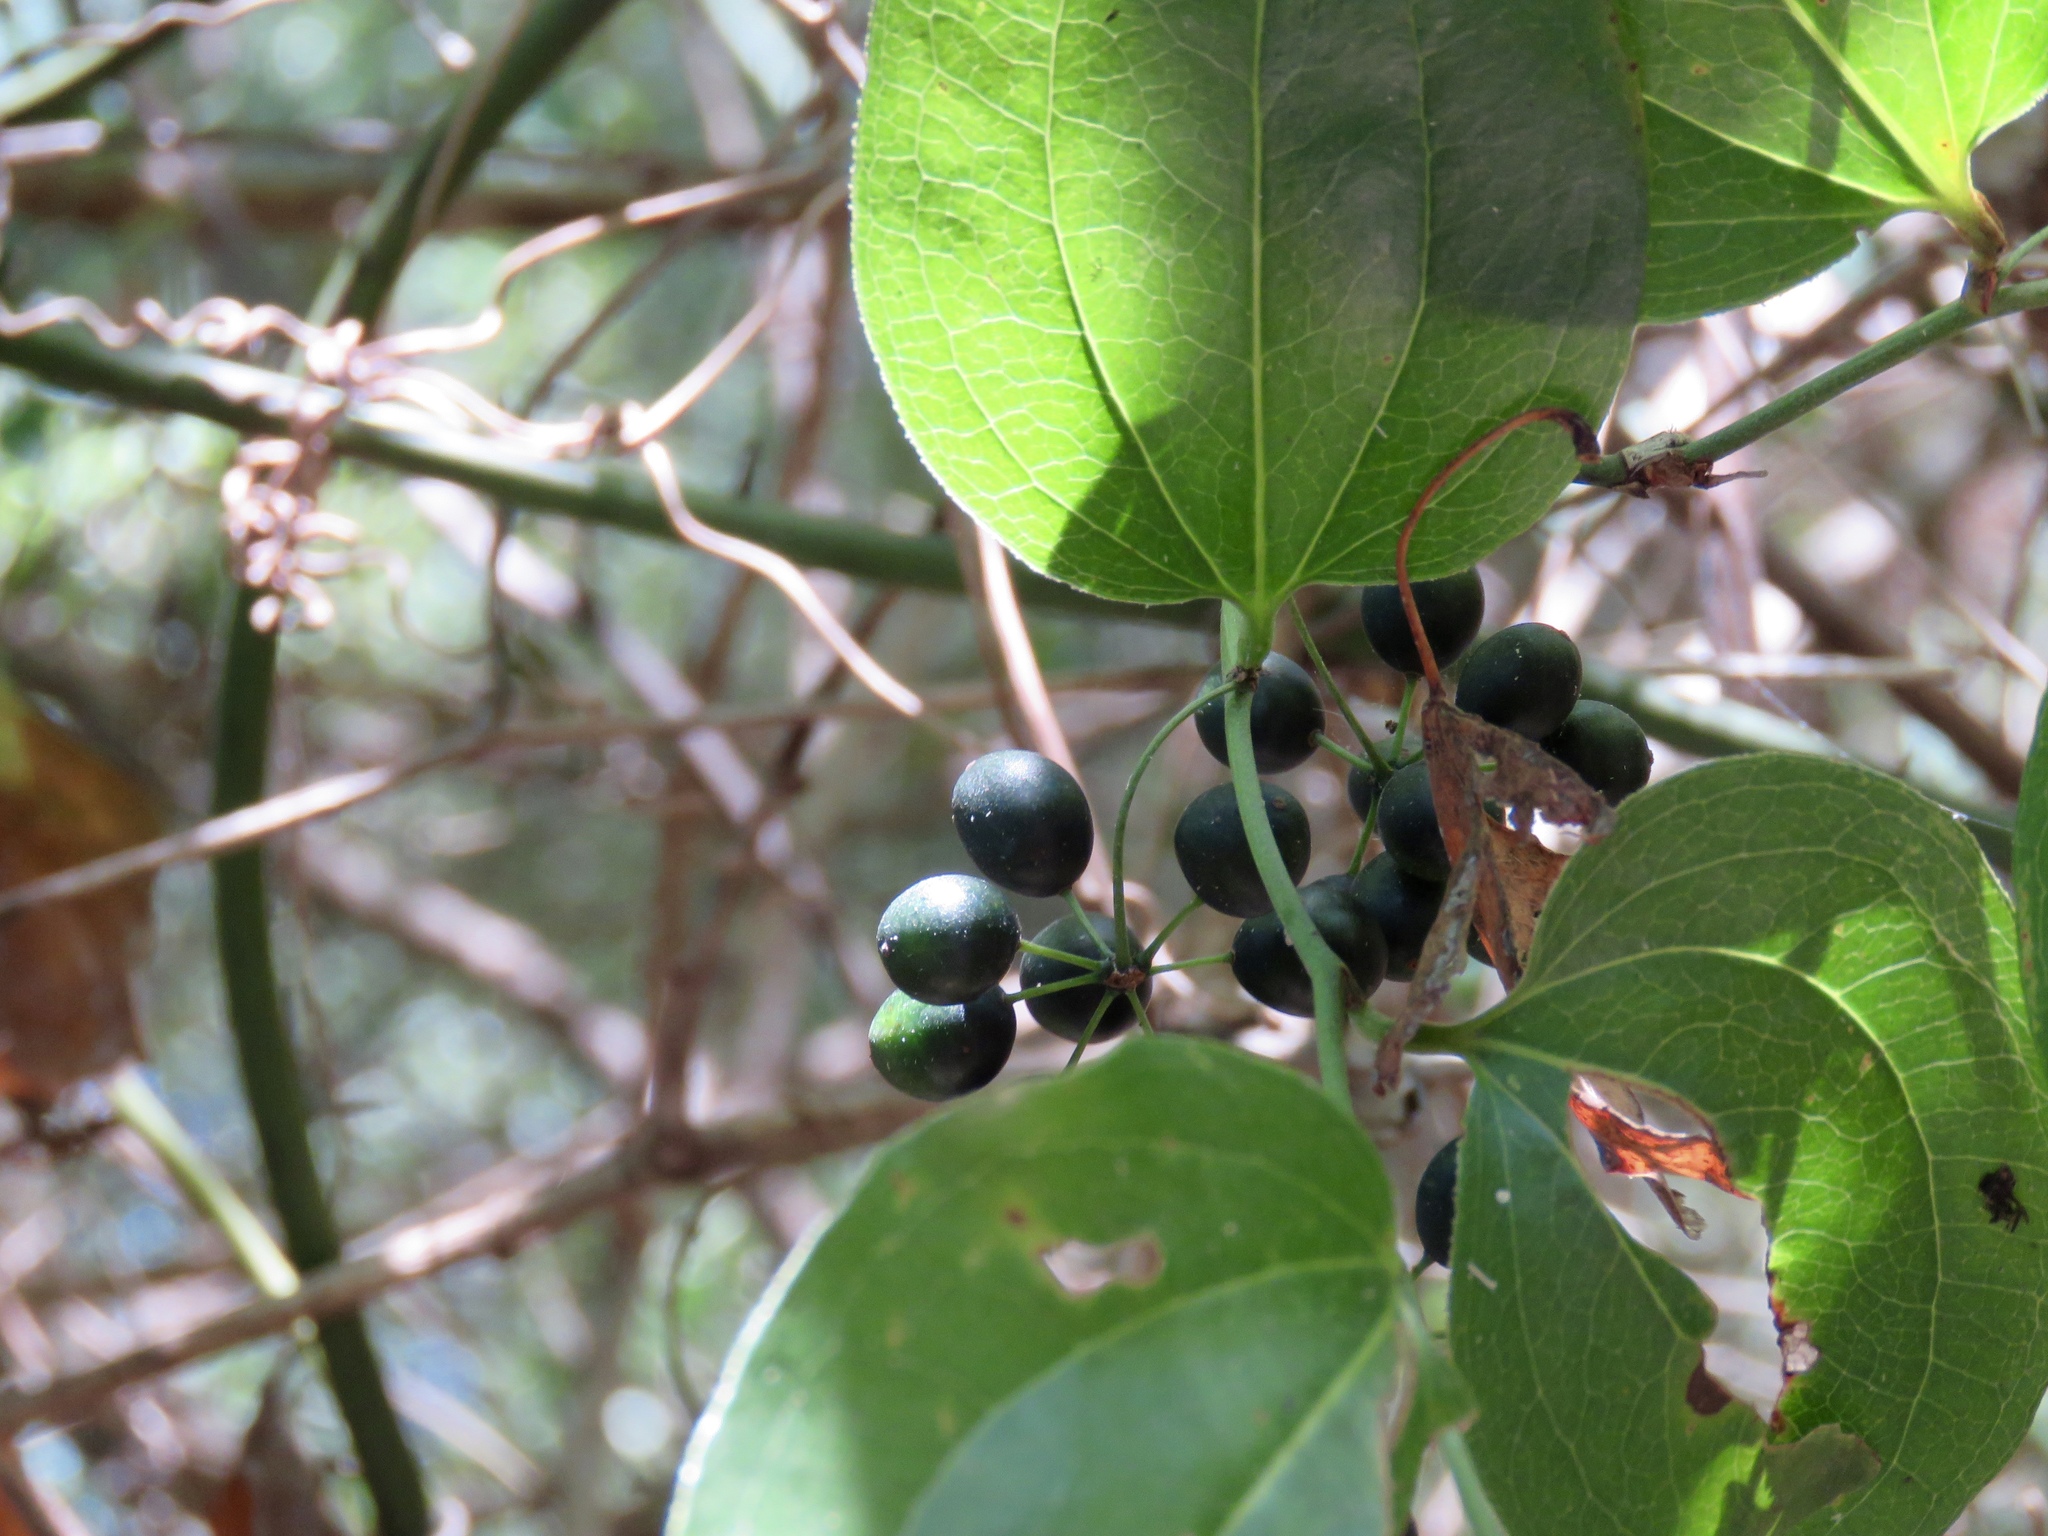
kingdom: Plantae
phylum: Tracheophyta
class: Liliopsida
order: Liliales
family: Smilacaceae
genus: Smilax
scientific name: Smilax rotundifolia
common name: Bullbriar
